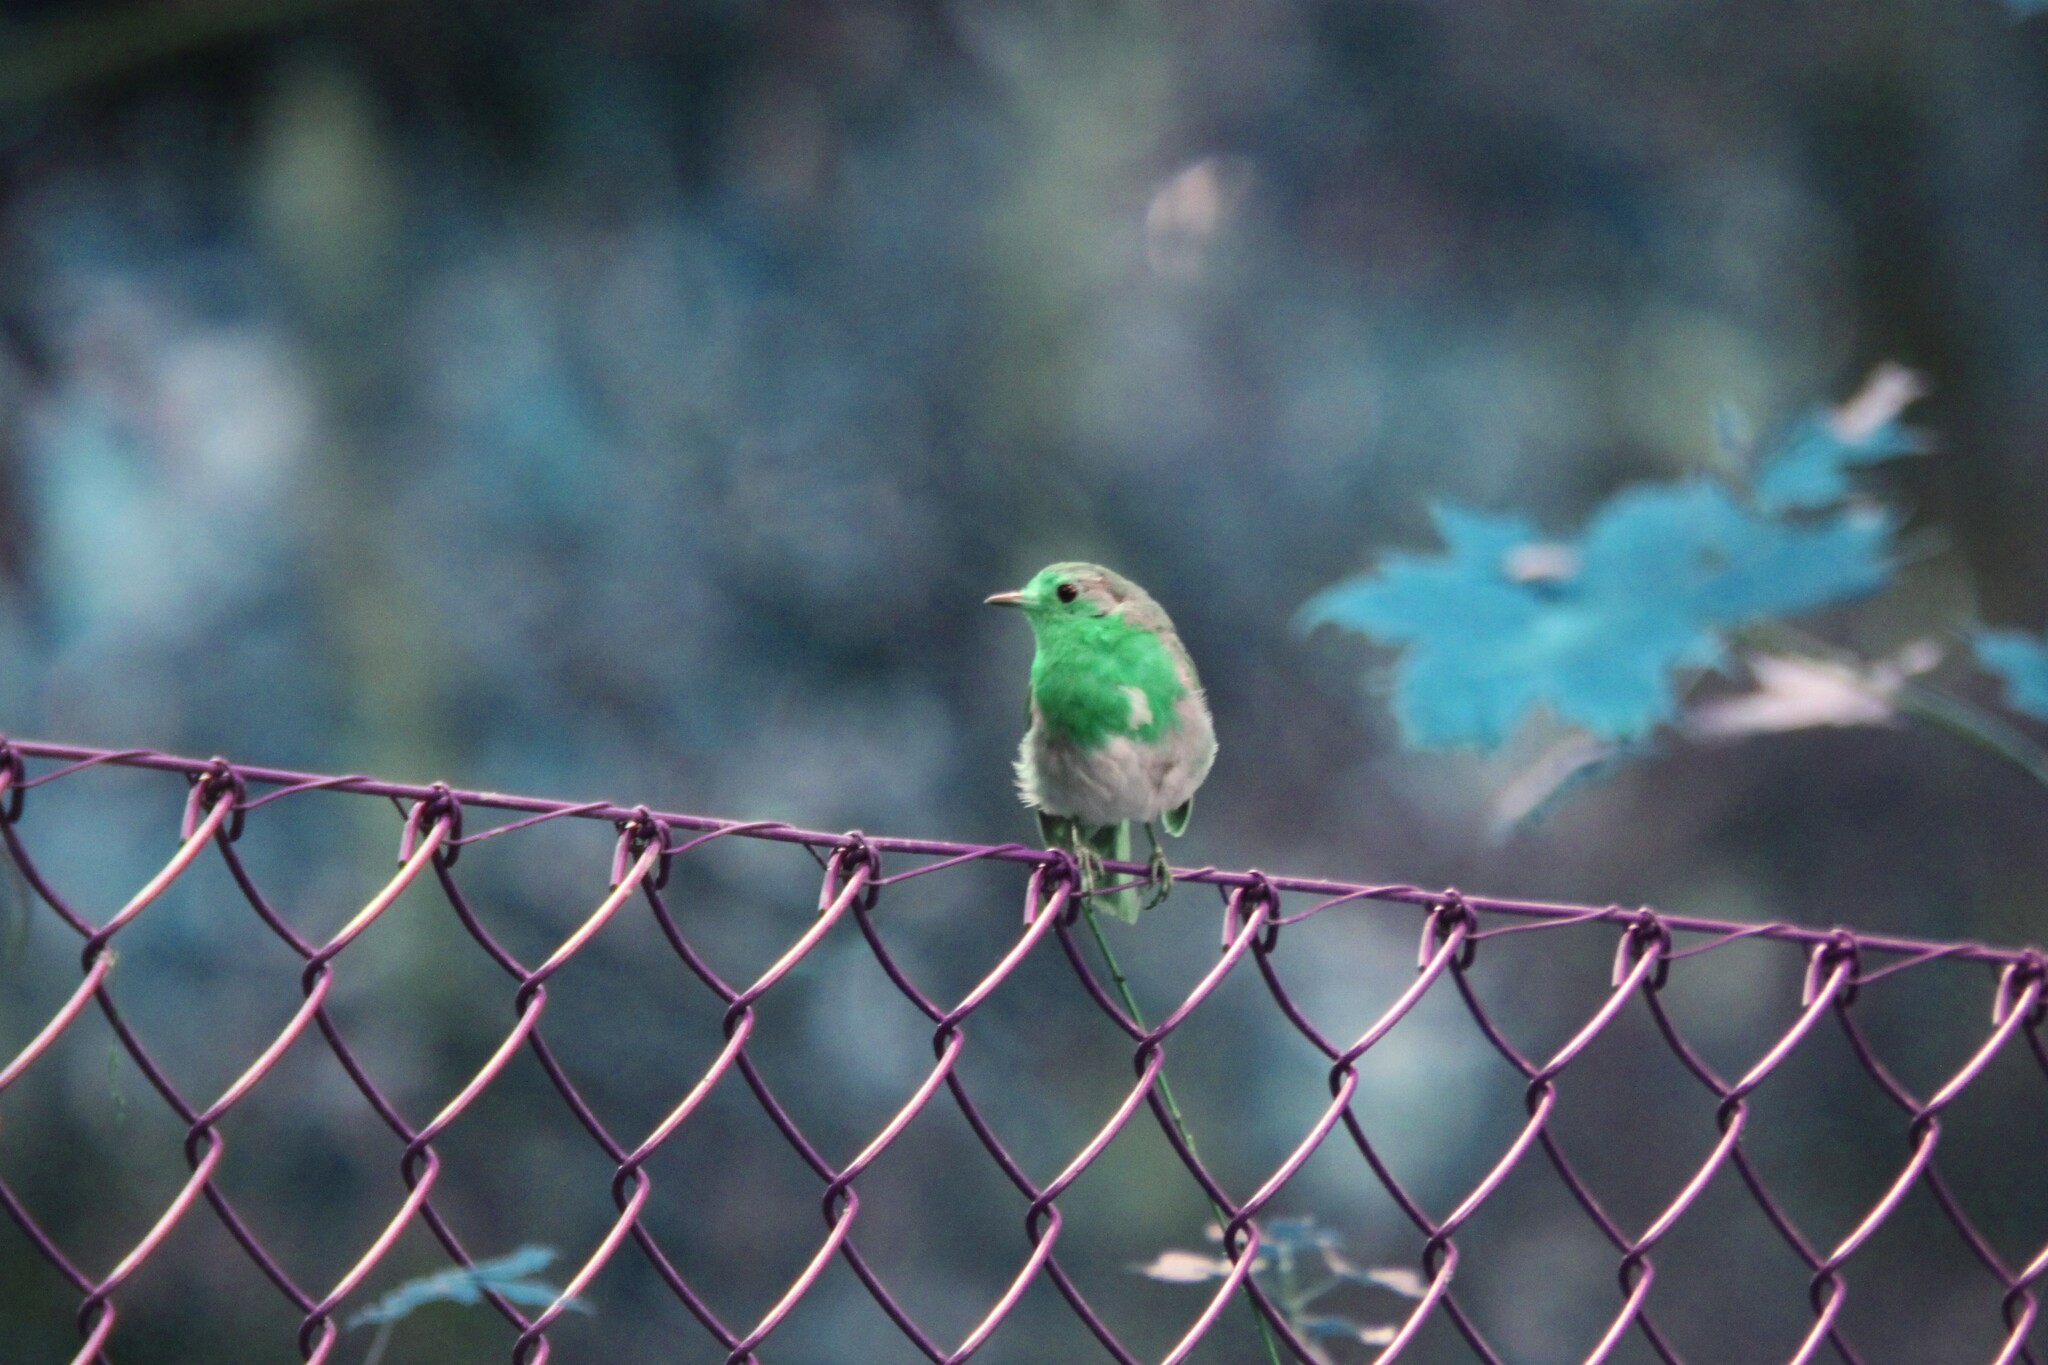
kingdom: Animalia
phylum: Chordata
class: Aves
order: Passeriformes
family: Muscicapidae
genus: Erithacus
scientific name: Erithacus rubecula
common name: European robin
